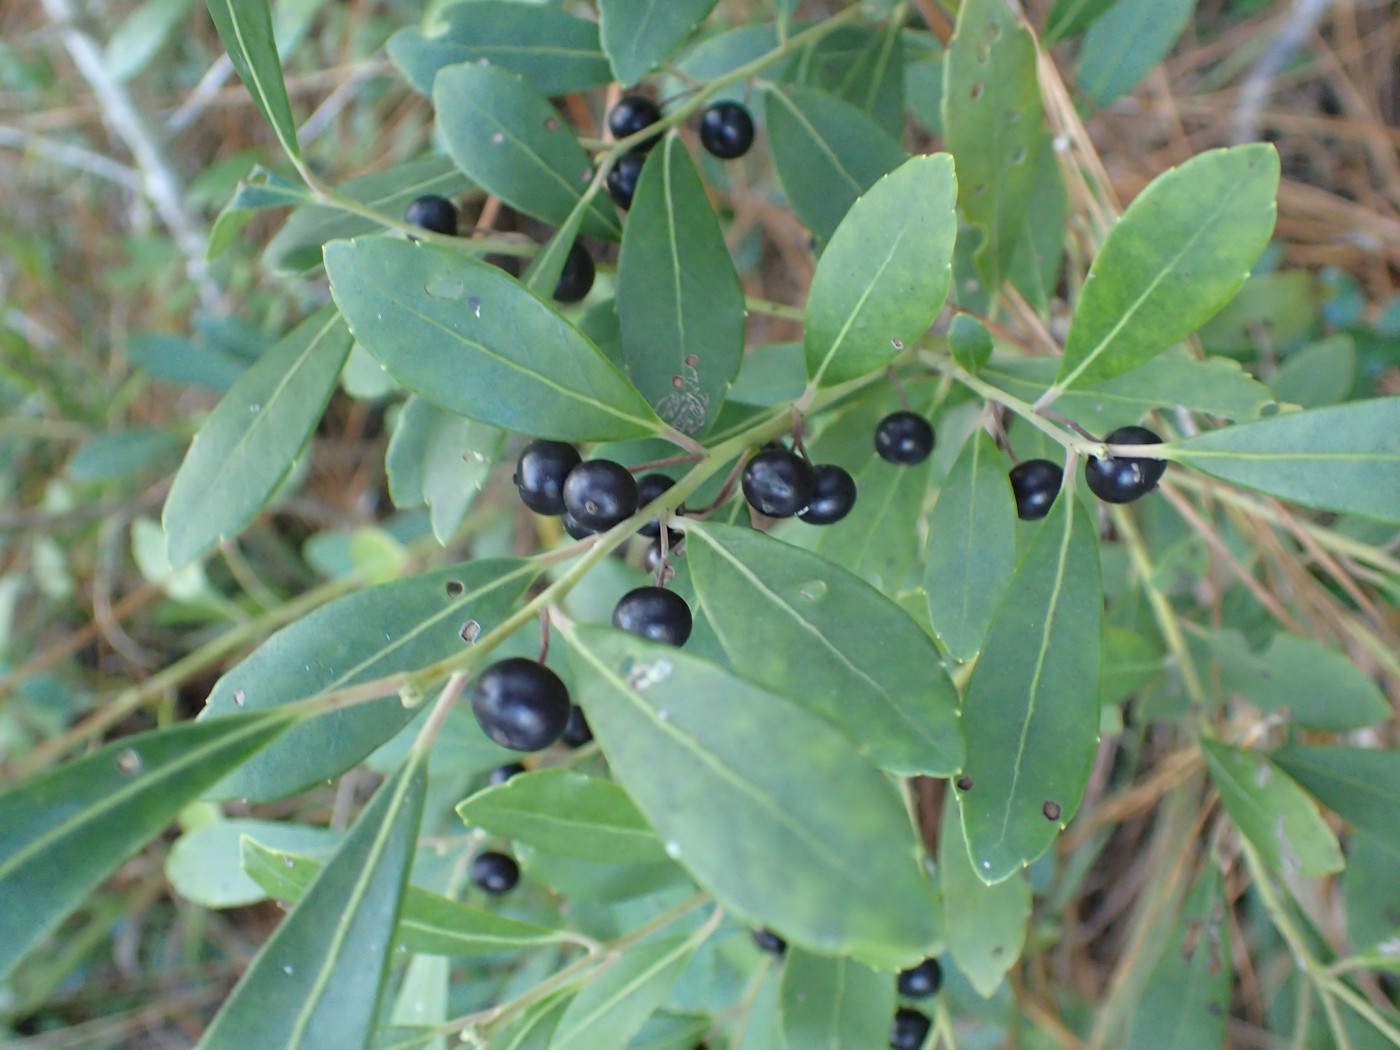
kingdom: Plantae
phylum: Tracheophyta
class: Magnoliopsida
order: Aquifoliales
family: Aquifoliaceae
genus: Ilex
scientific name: Ilex glabra
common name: Bitter gallberry
